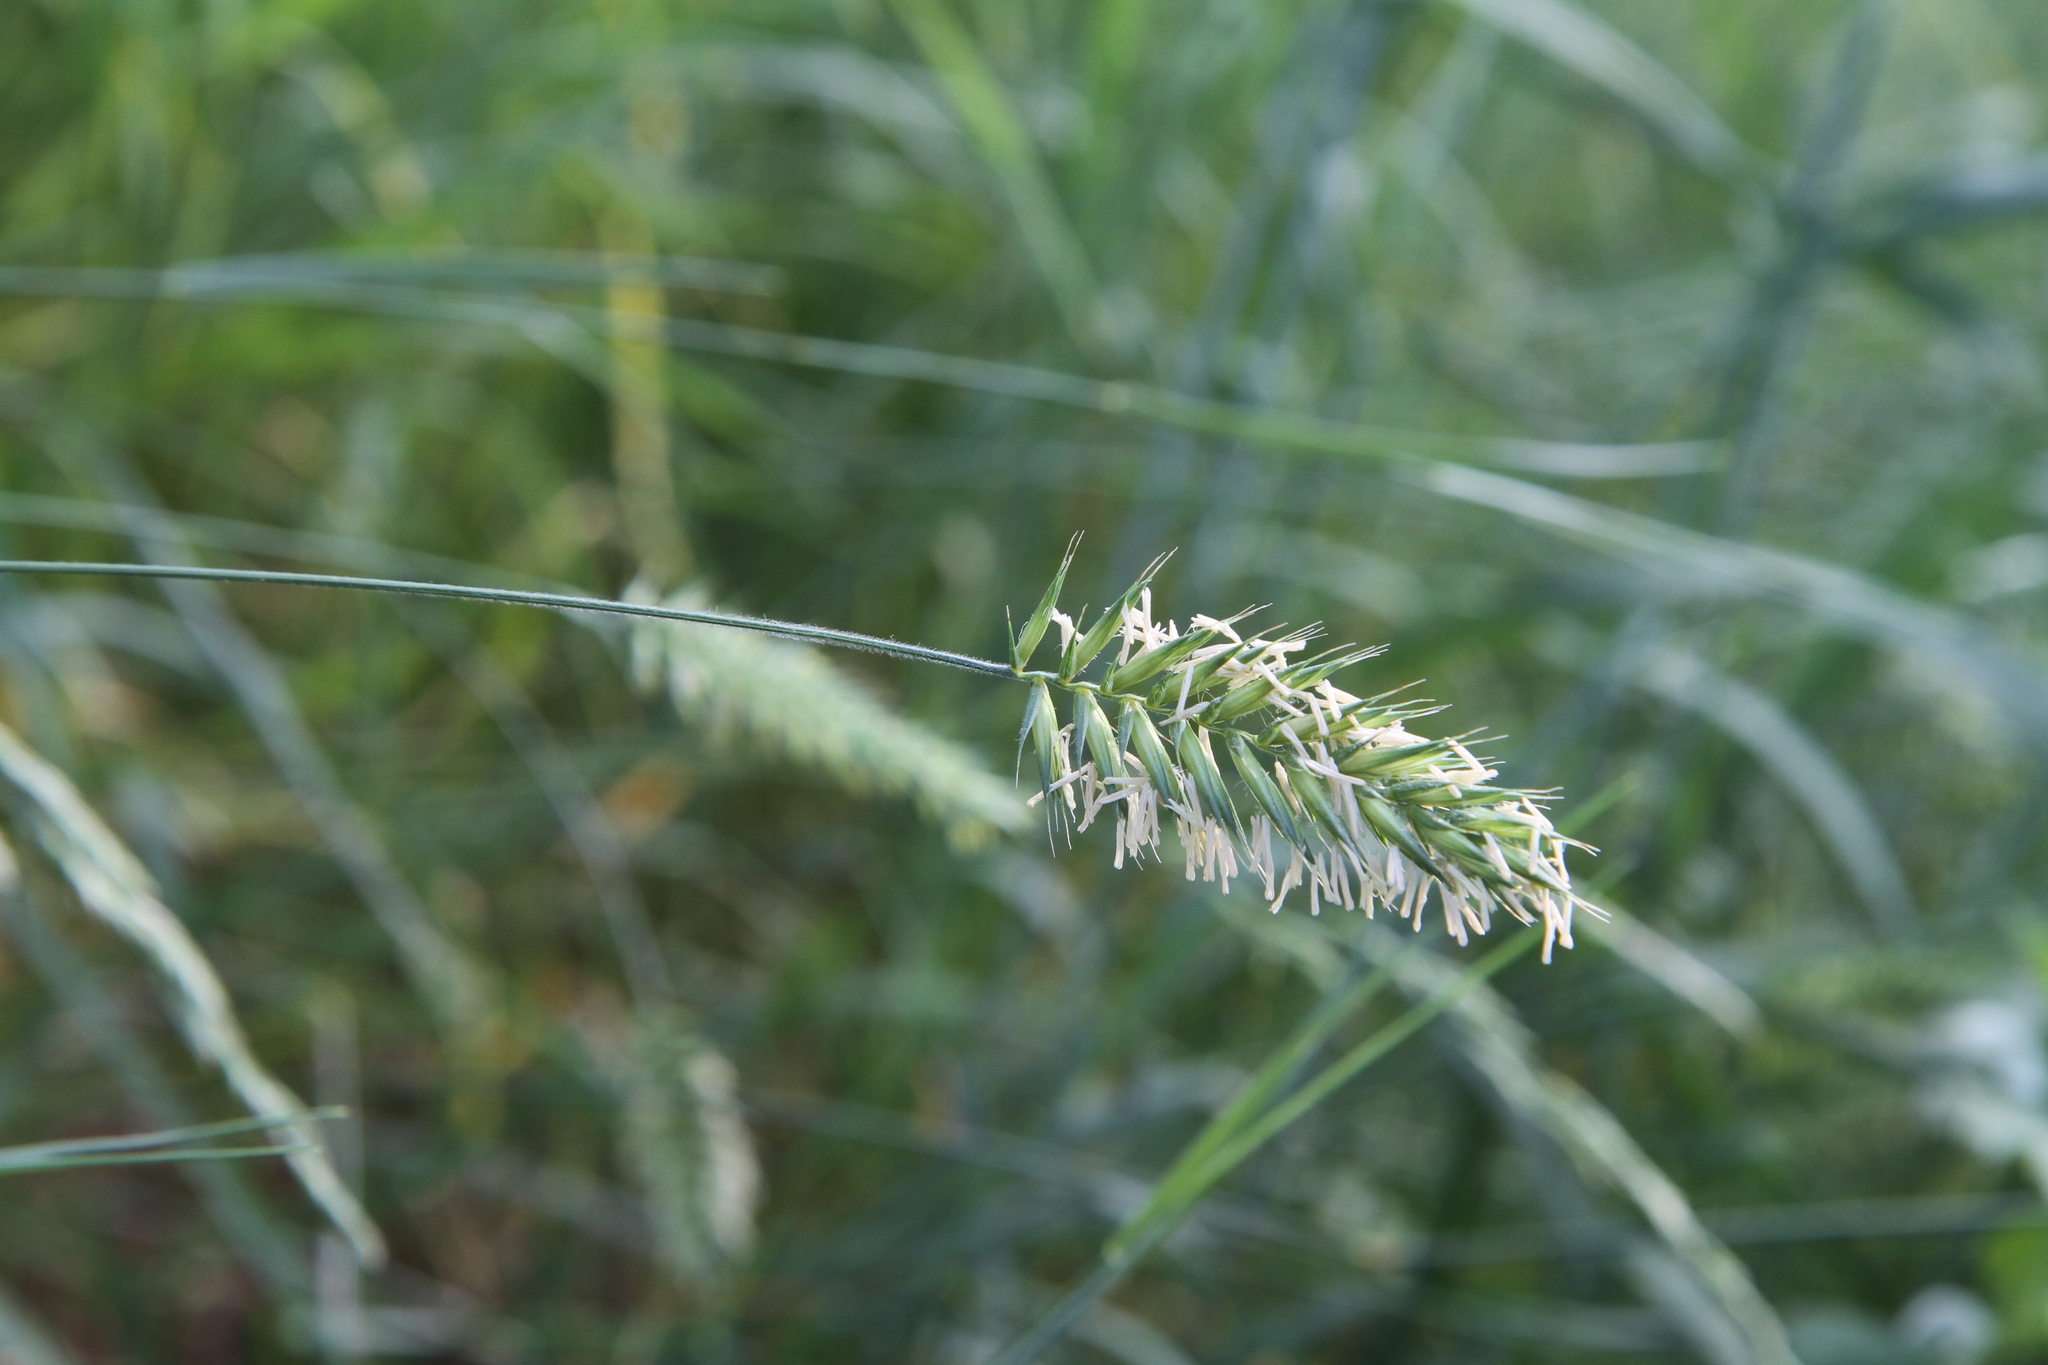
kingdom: Plantae
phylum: Tracheophyta
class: Liliopsida
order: Poales
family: Poaceae
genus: Agropyron
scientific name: Agropyron cristatum
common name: Crested wheatgrass
